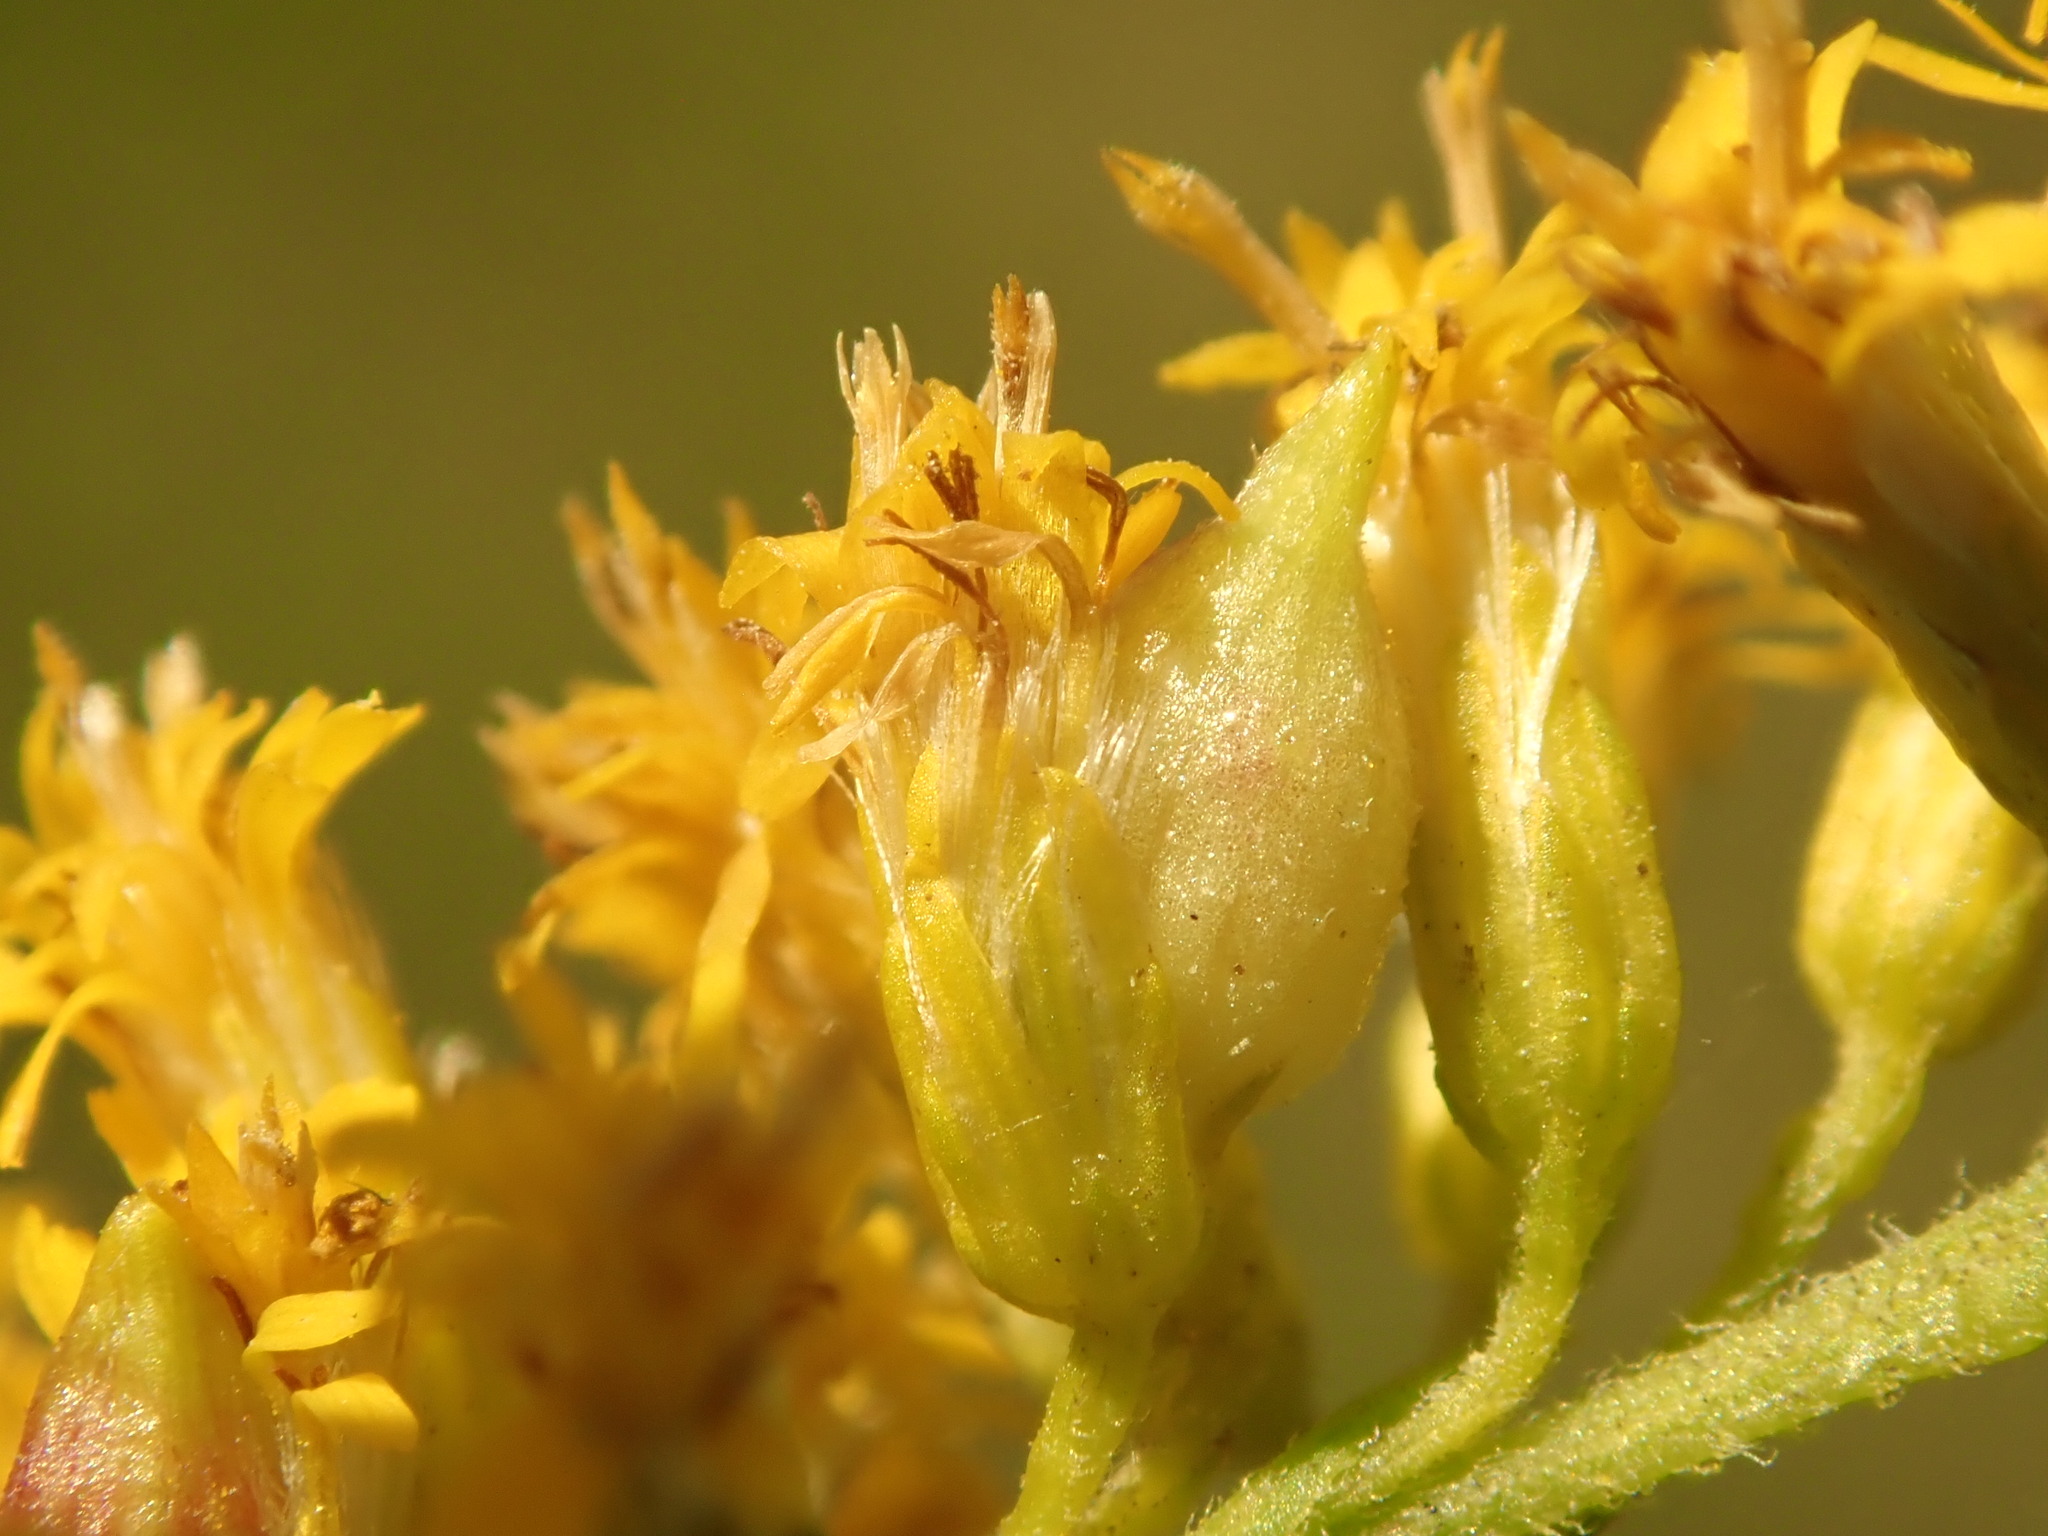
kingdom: Animalia
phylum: Arthropoda
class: Insecta
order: Diptera
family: Cecidomyiidae
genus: Schizomyia
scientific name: Schizomyia racemicola
